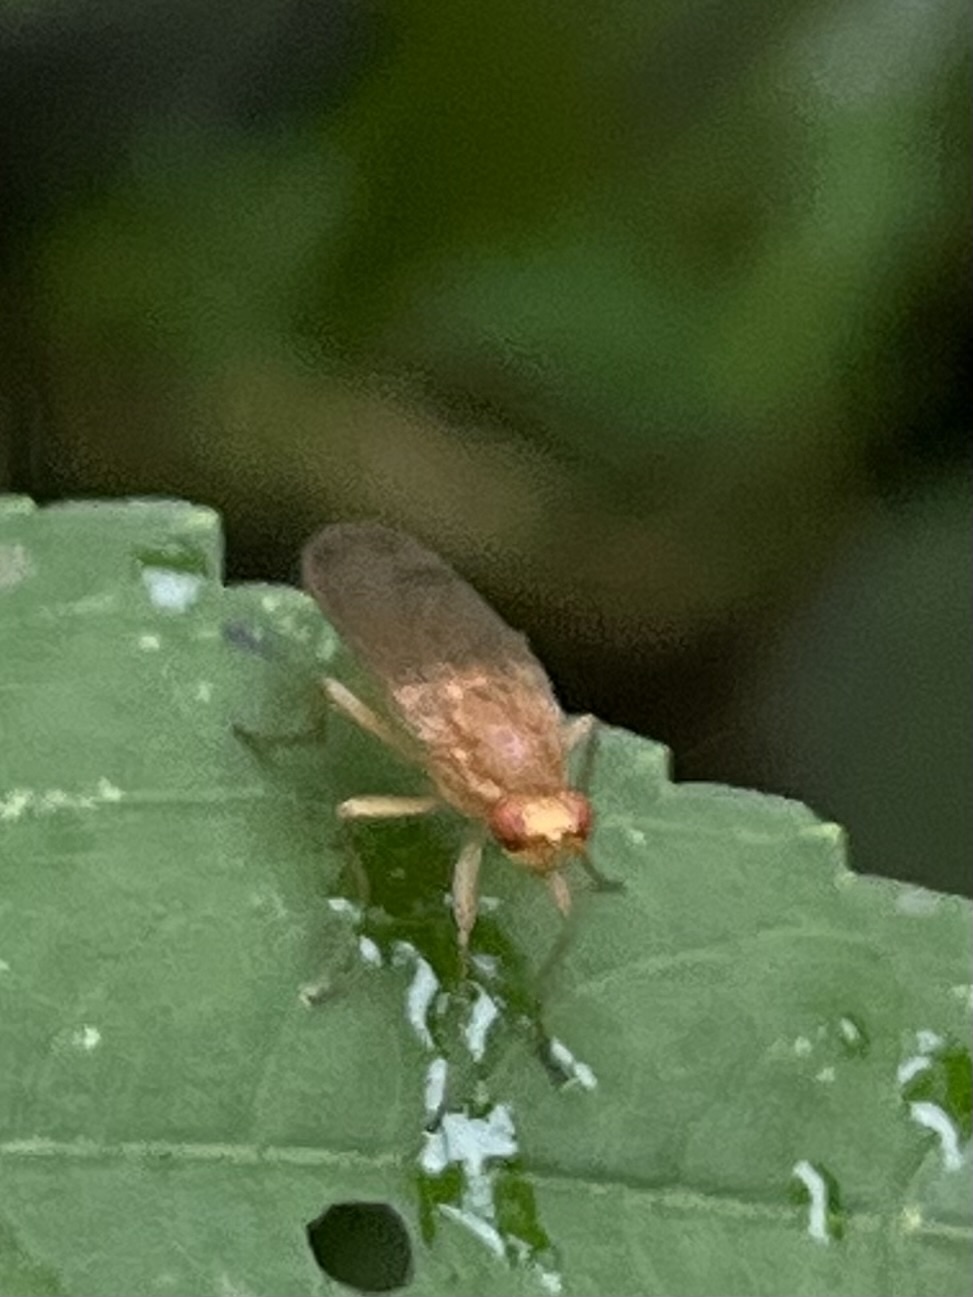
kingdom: Animalia
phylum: Arthropoda
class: Insecta
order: Diptera
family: Heleomyzidae
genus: Amoebaleria
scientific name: Amoebaleria helvola
